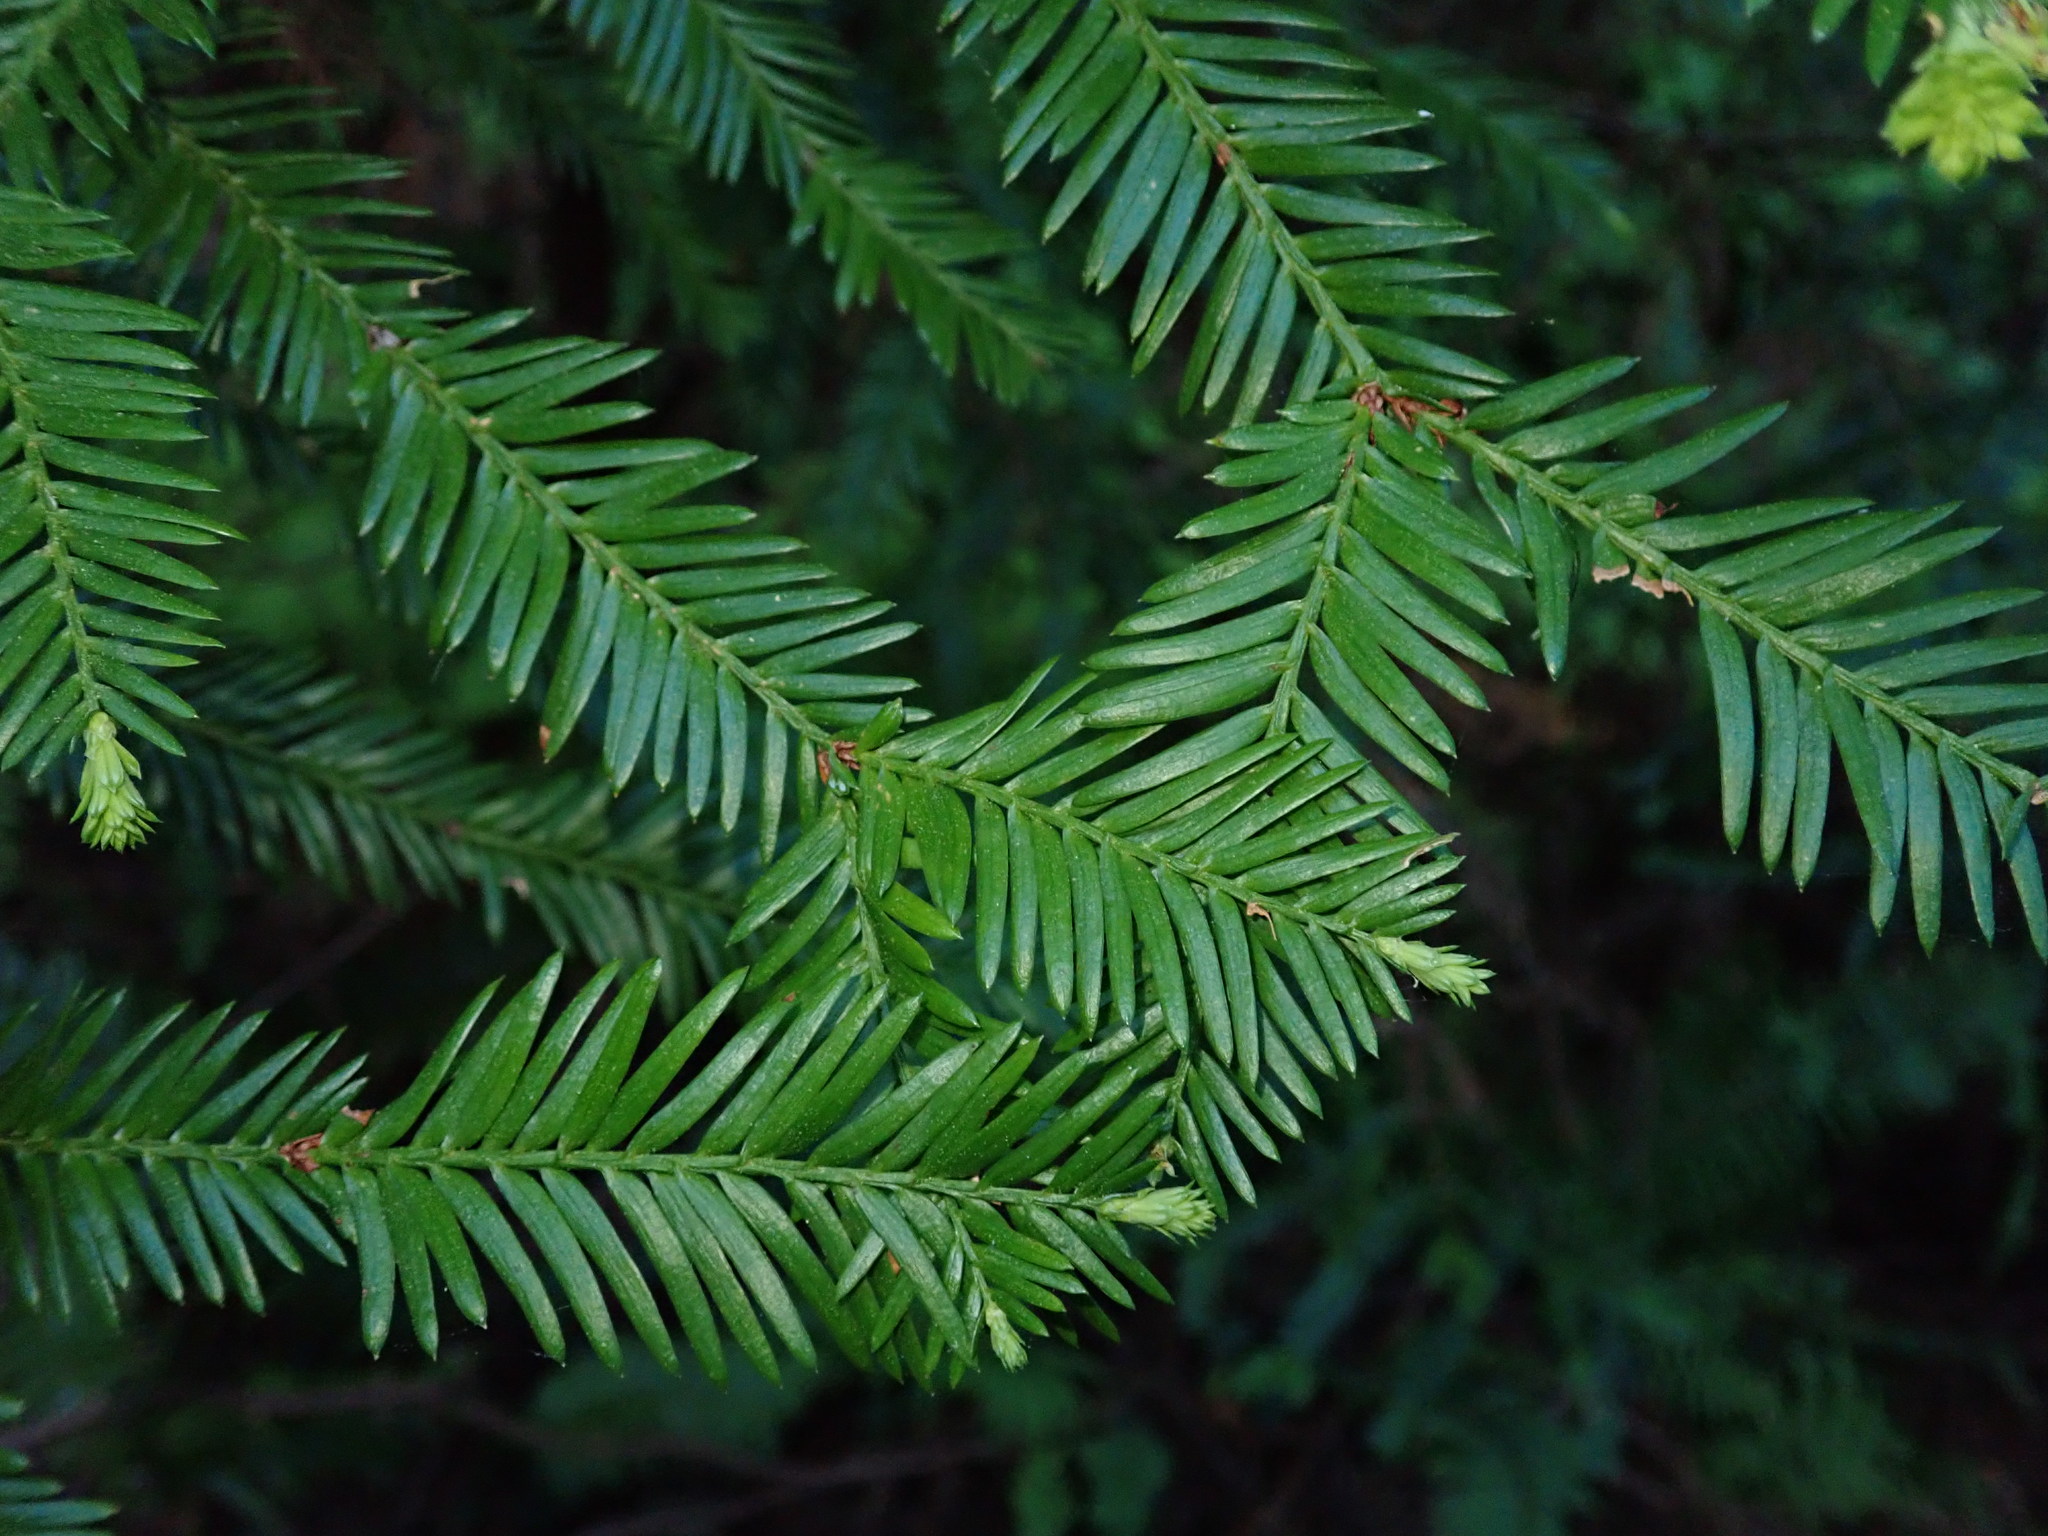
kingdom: Plantae
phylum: Tracheophyta
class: Pinopsida
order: Pinales
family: Cupressaceae
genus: Sequoia
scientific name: Sequoia sempervirens
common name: Coast redwood
